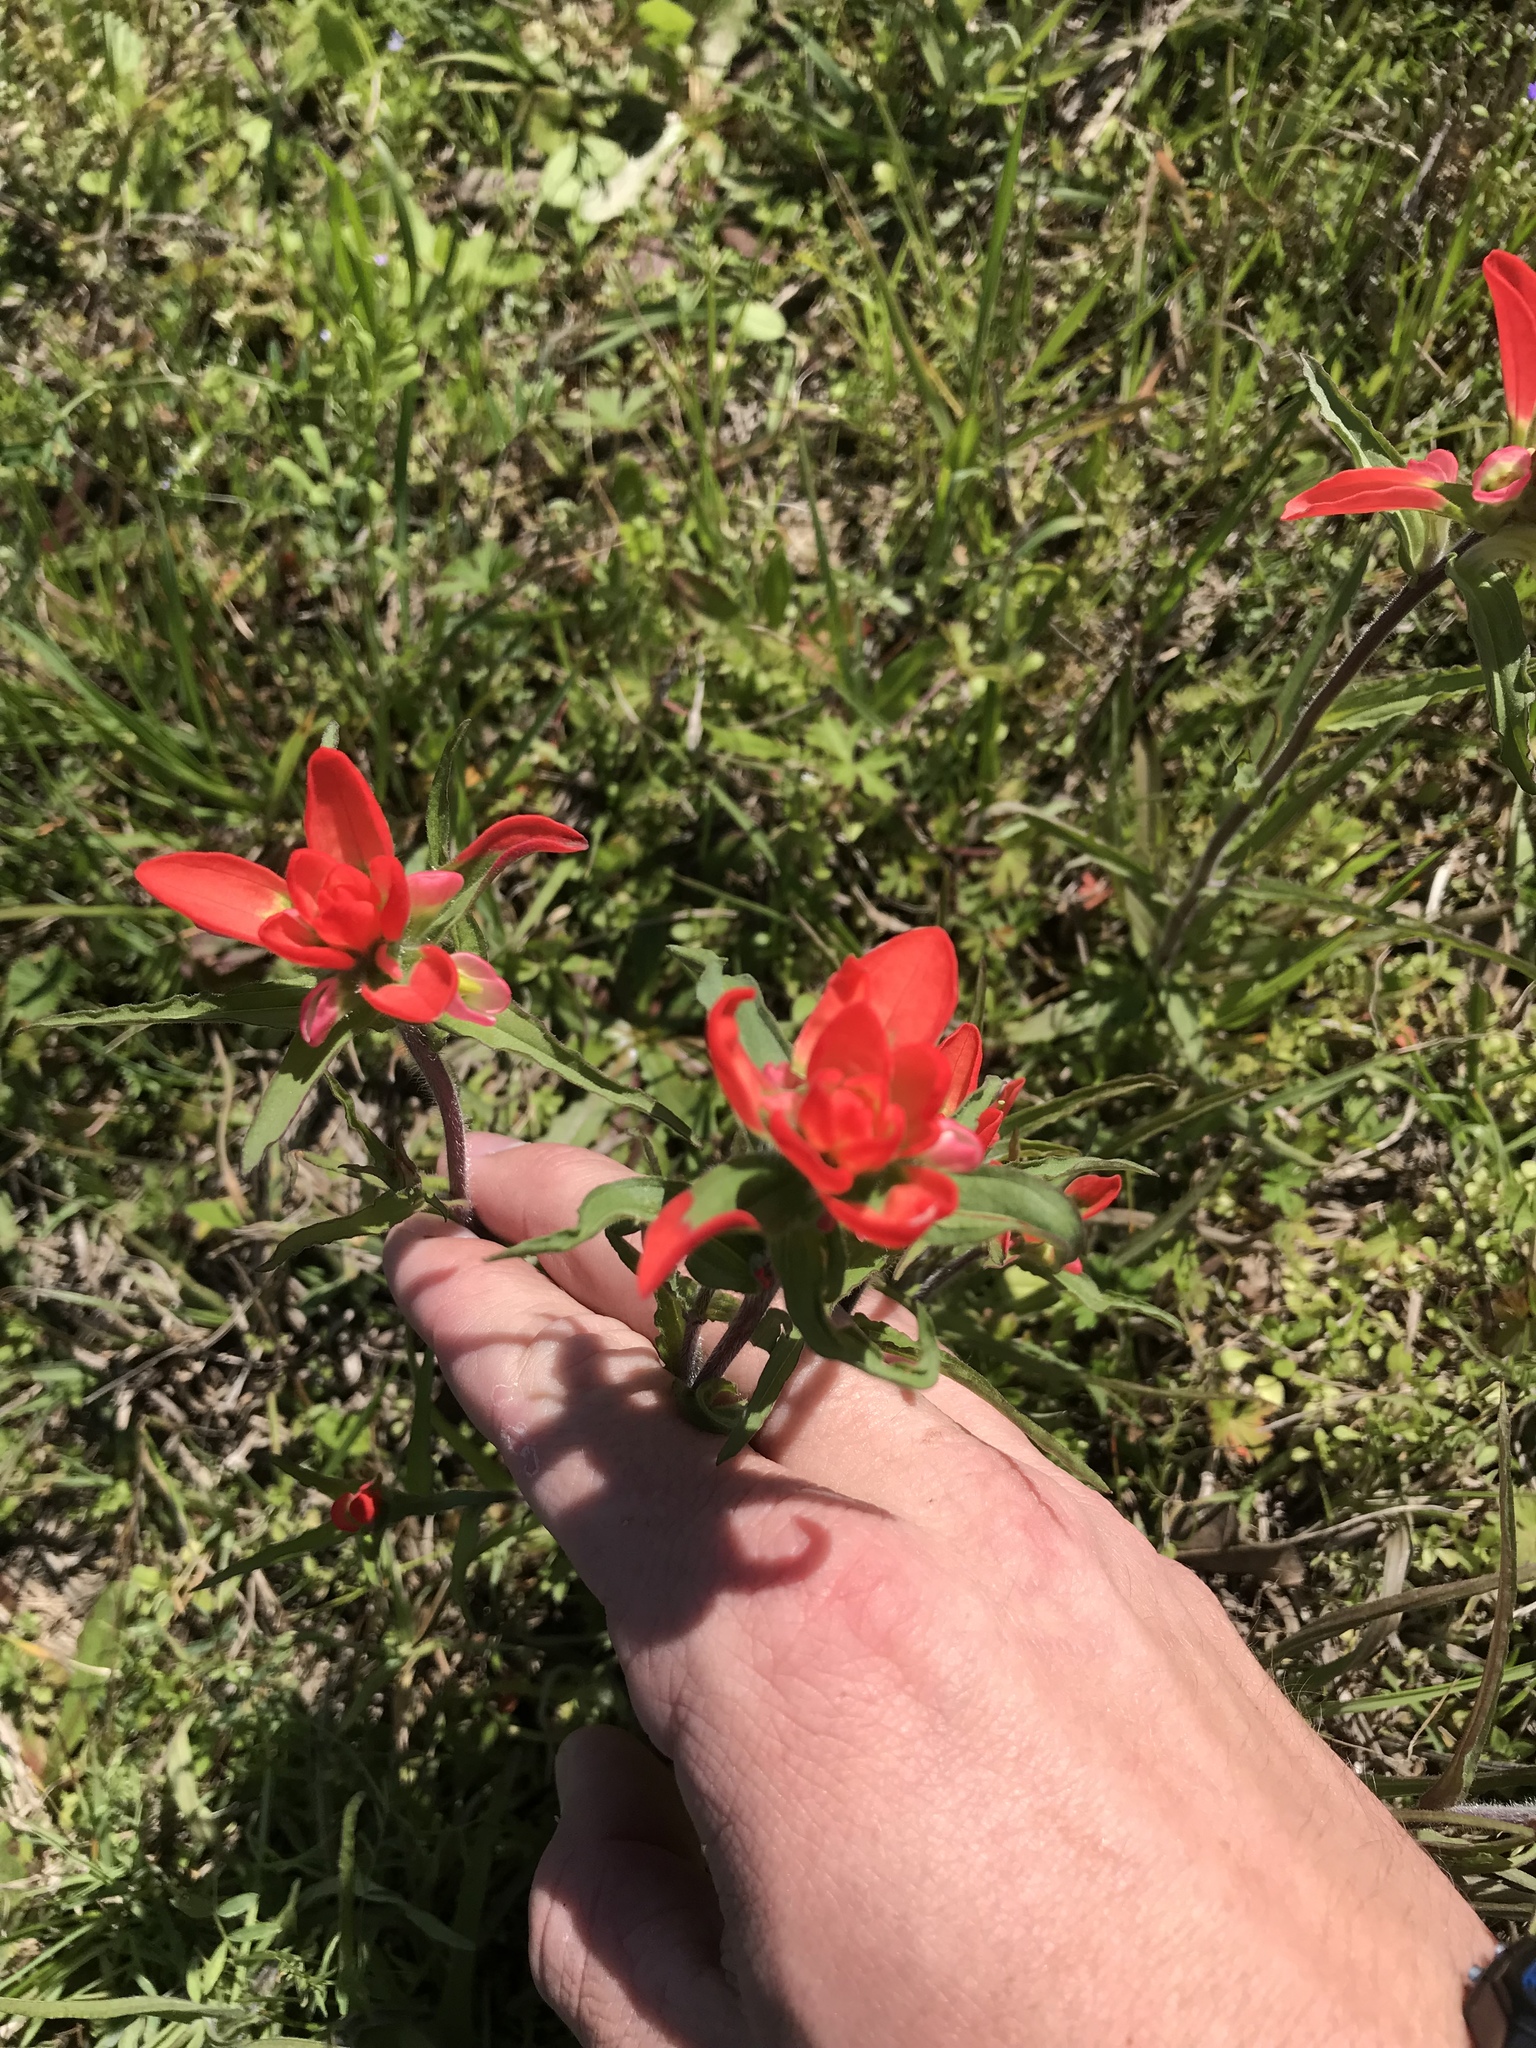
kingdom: Plantae
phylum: Tracheophyta
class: Magnoliopsida
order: Lamiales
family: Orobanchaceae
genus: Castilleja
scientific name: Castilleja indivisa
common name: Texas paintbrush
